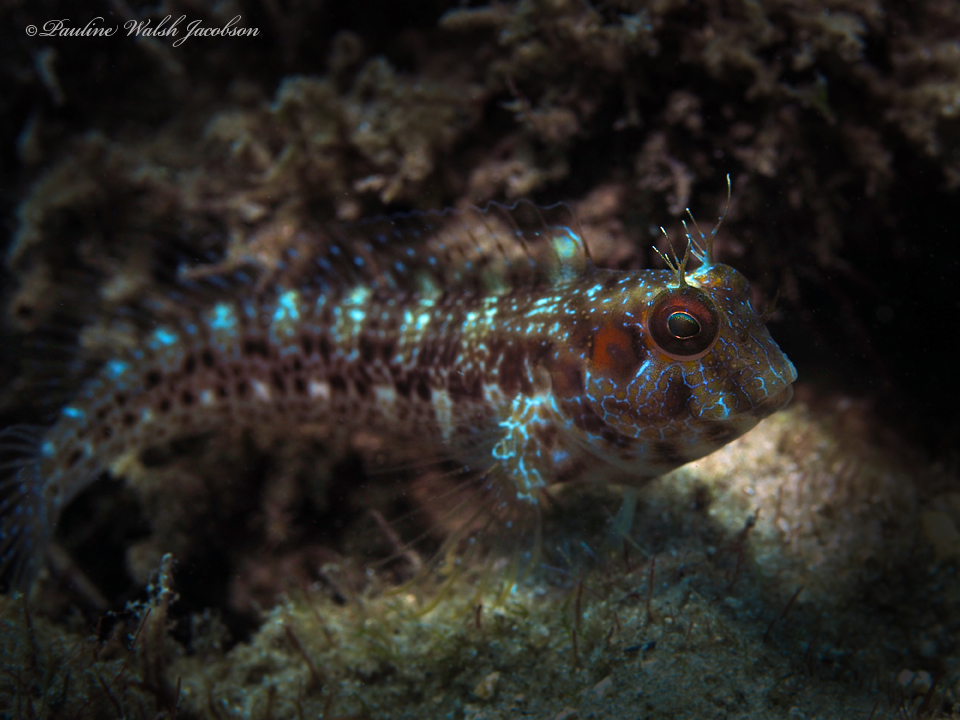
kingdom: Animalia
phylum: Chordata
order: Perciformes
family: Blenniidae
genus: Parablennius
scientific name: Parablennius marmoreus
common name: Seaweed blenny
